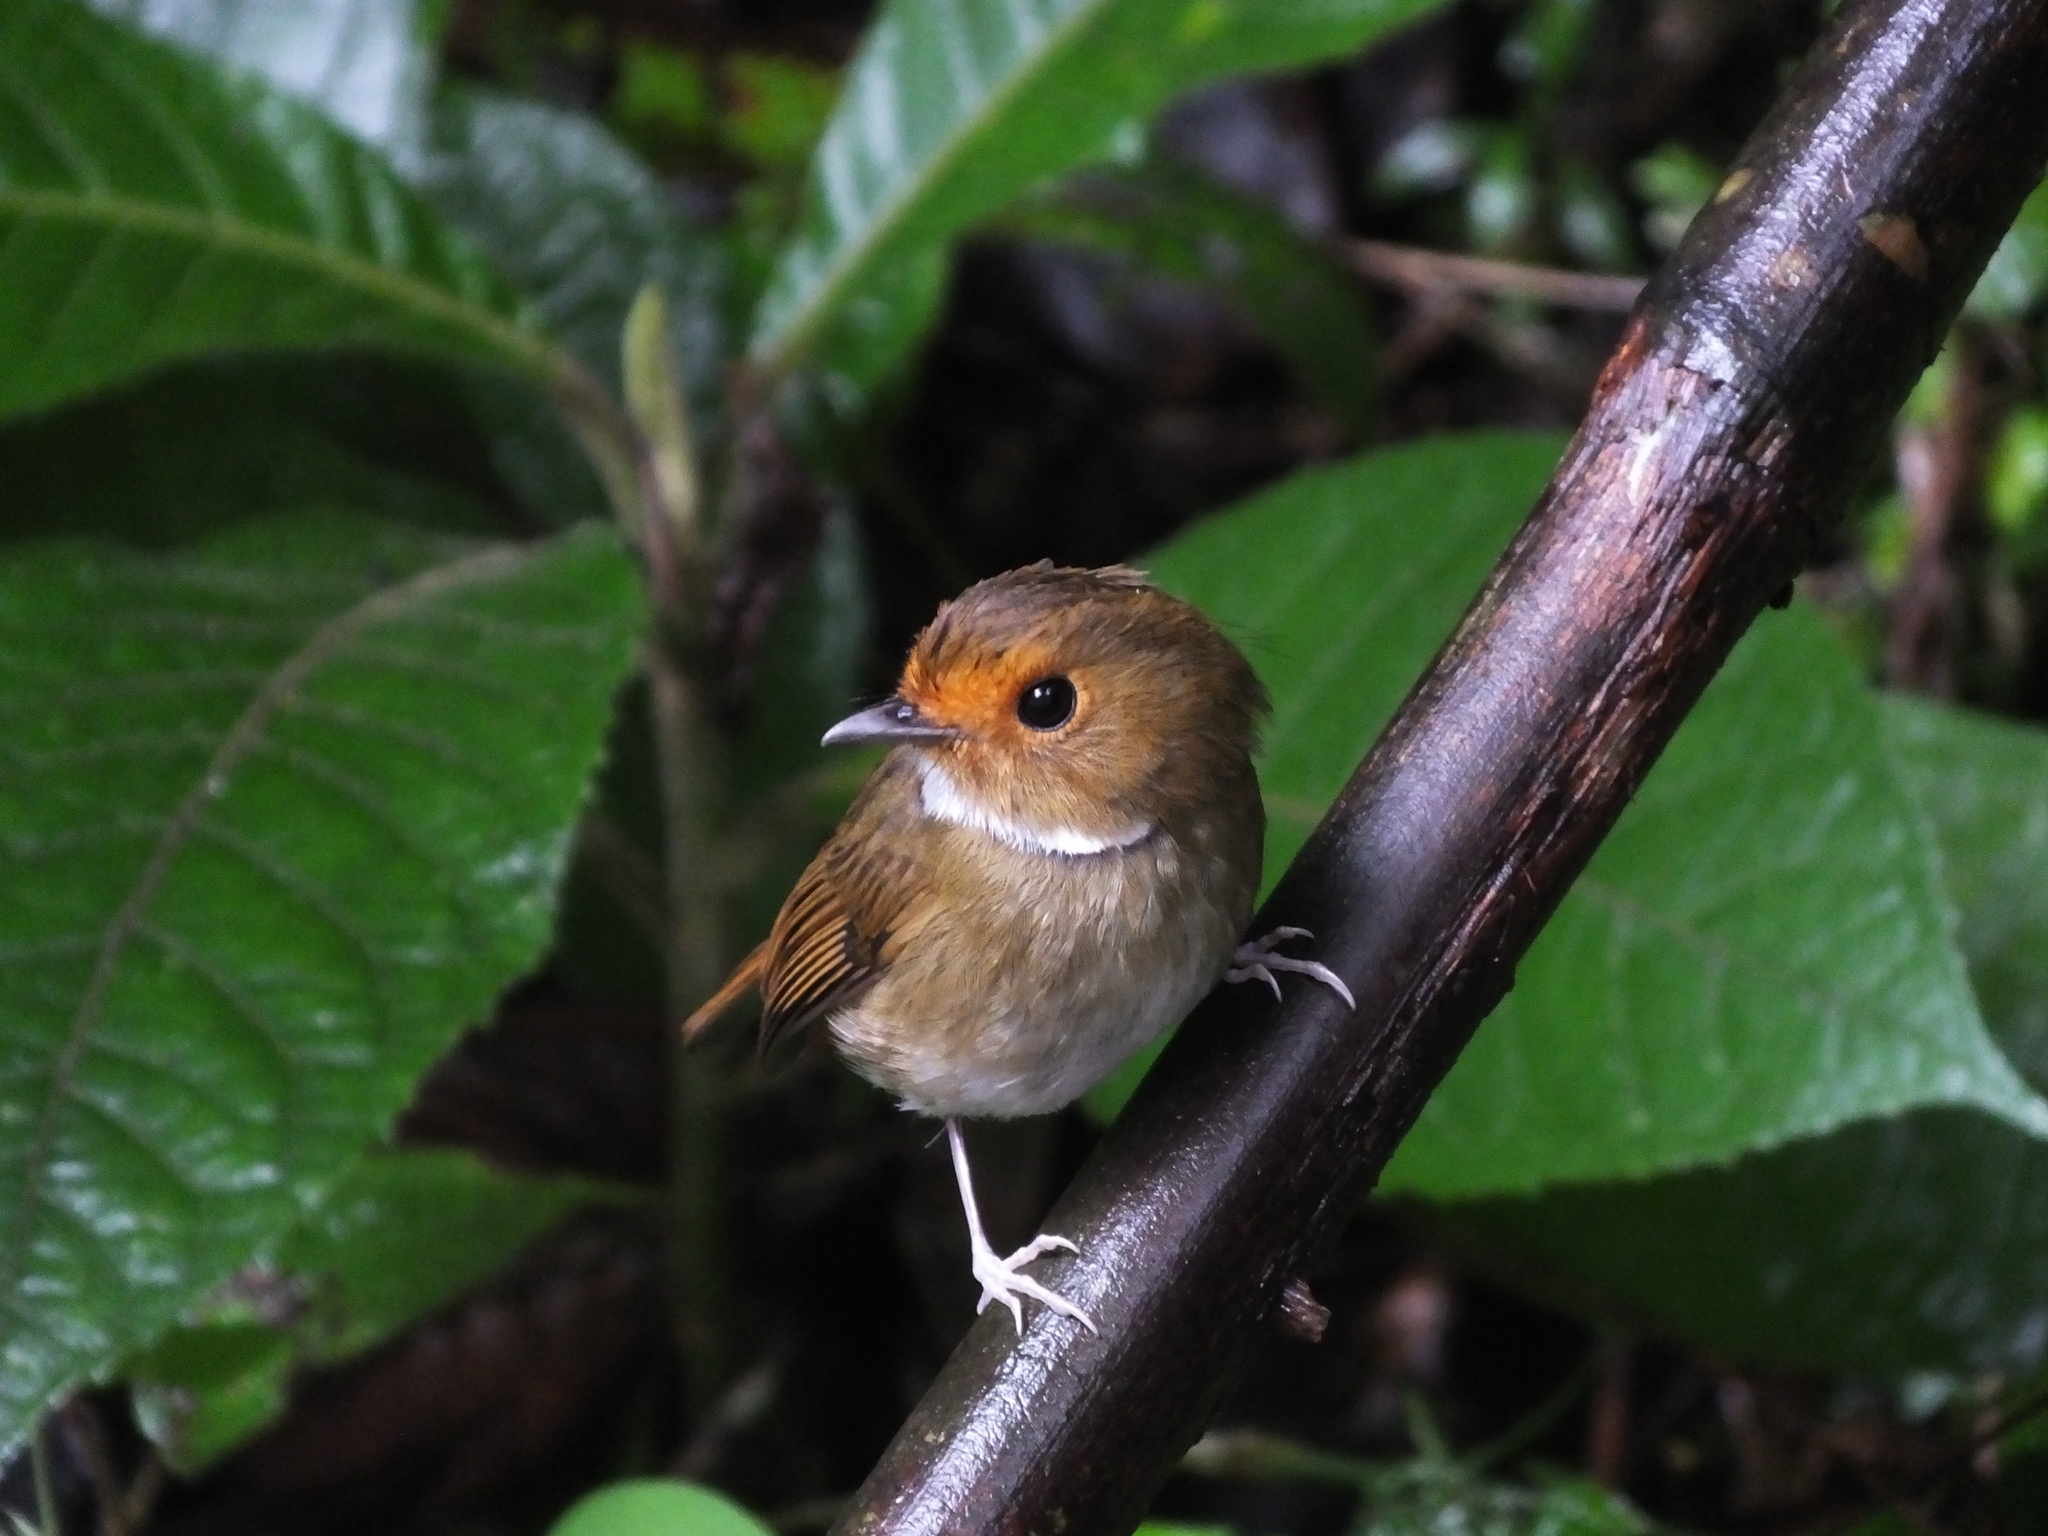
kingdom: Animalia
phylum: Chordata
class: Aves
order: Passeriformes
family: Muscicapidae
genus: Anthipes
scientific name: Anthipes solitaris
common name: Rufous-browed flycatcher
